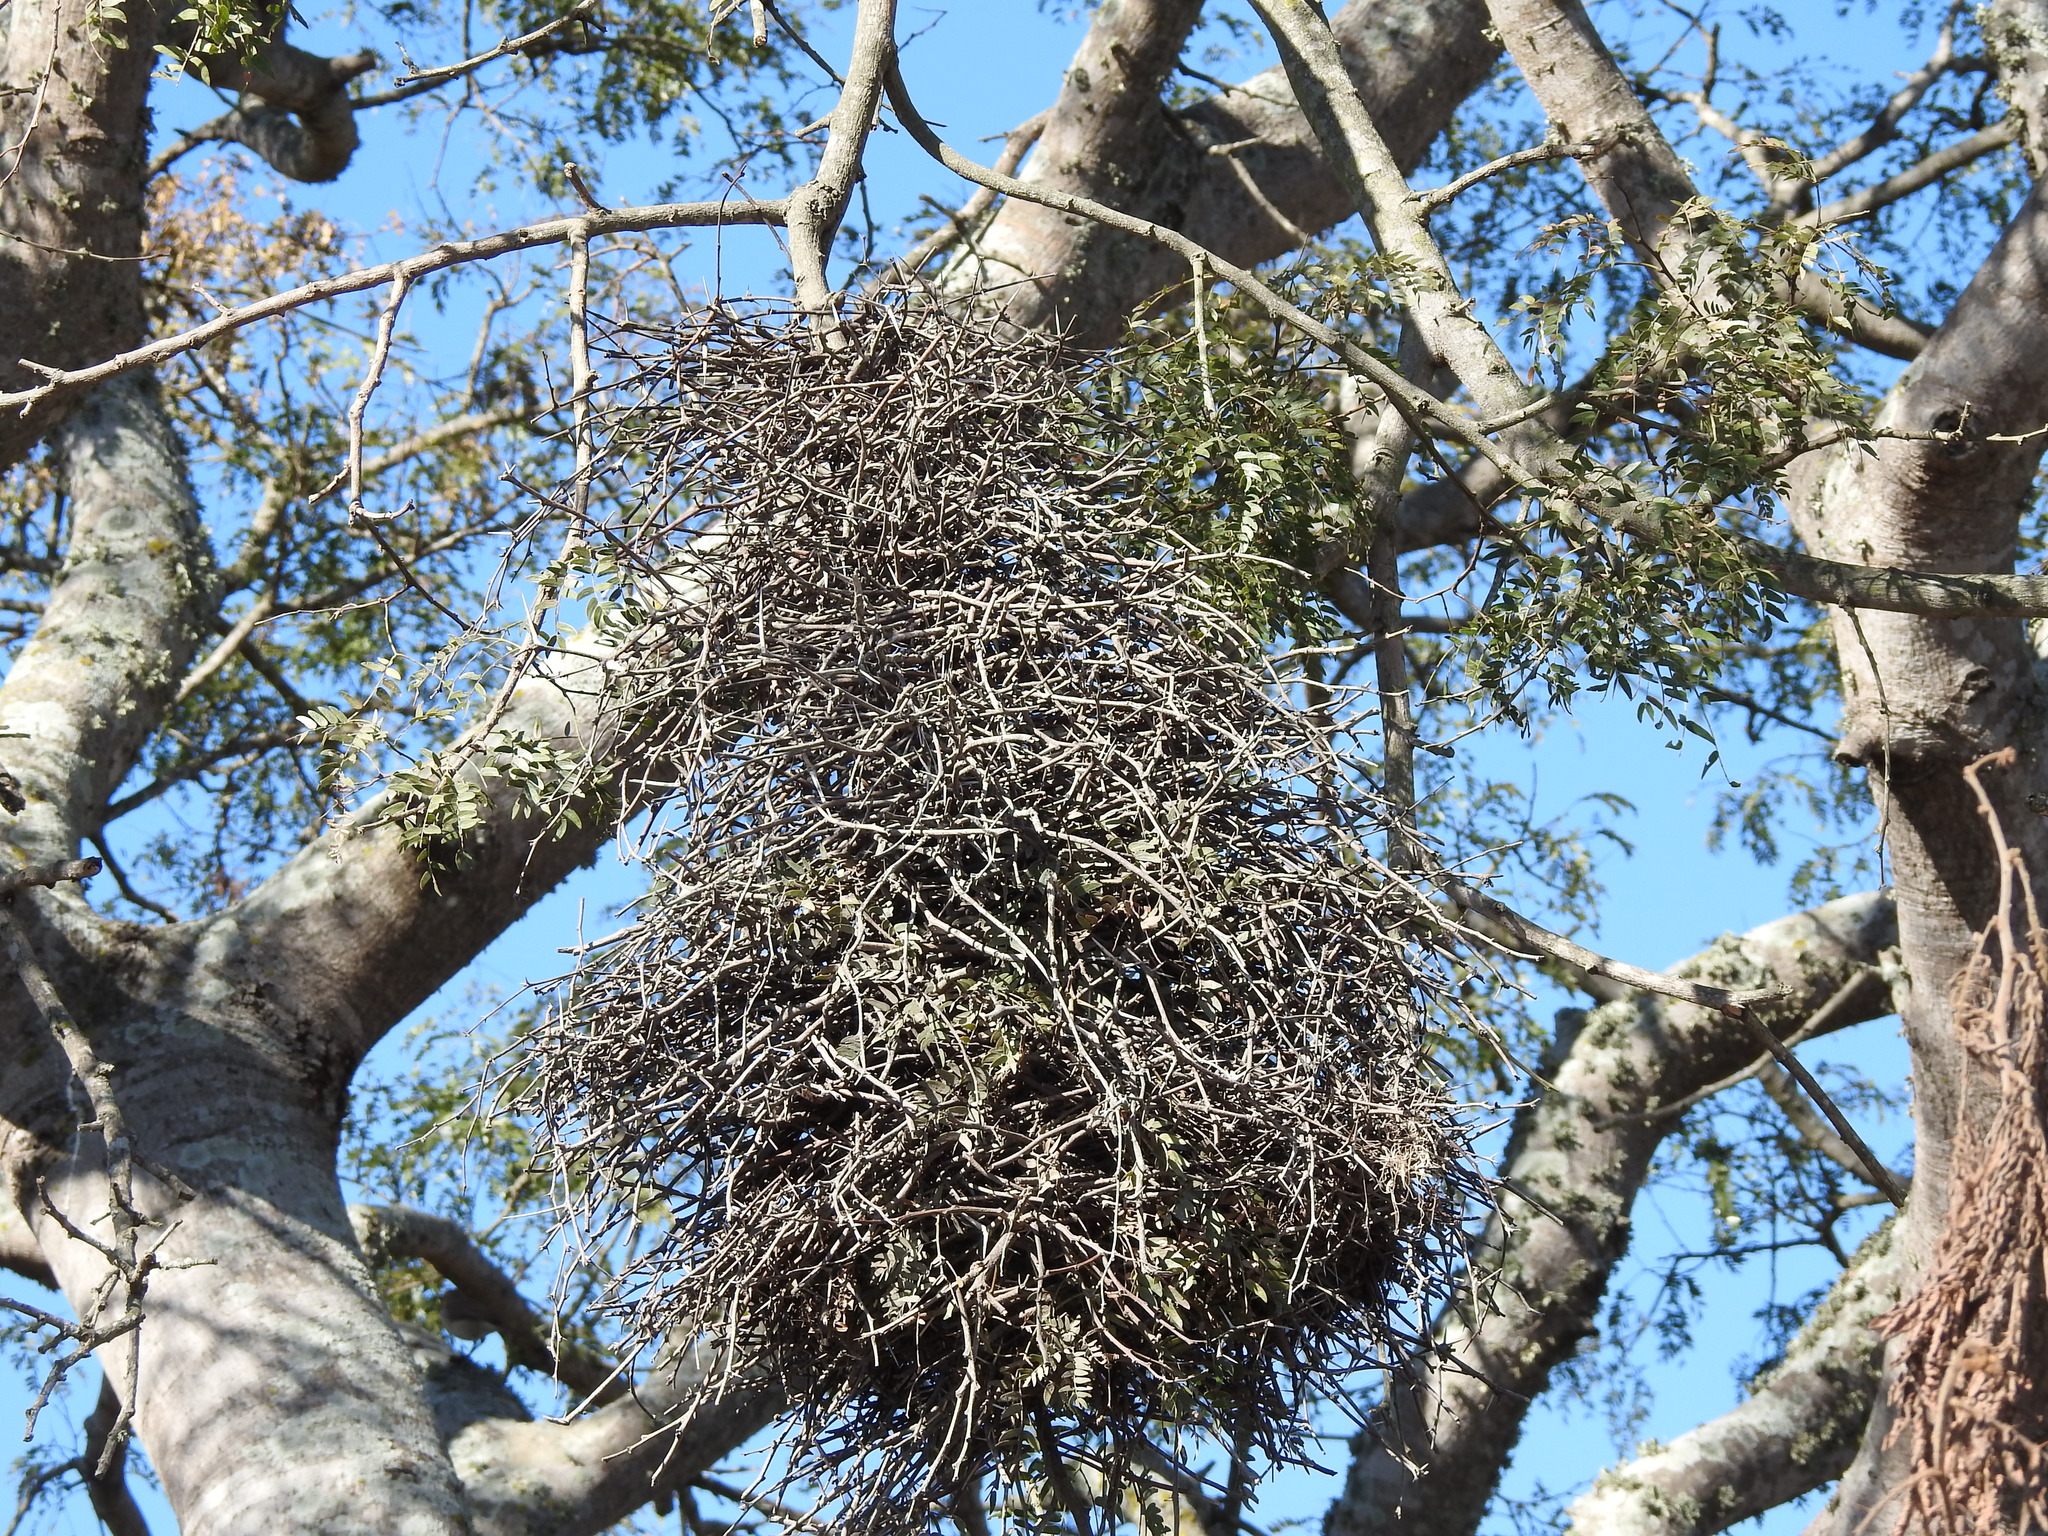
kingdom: Animalia
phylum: Chordata
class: Aves
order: Passeriformes
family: Furnariidae
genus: Phacellodomus
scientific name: Phacellodomus ruber
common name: Greater thornbird
